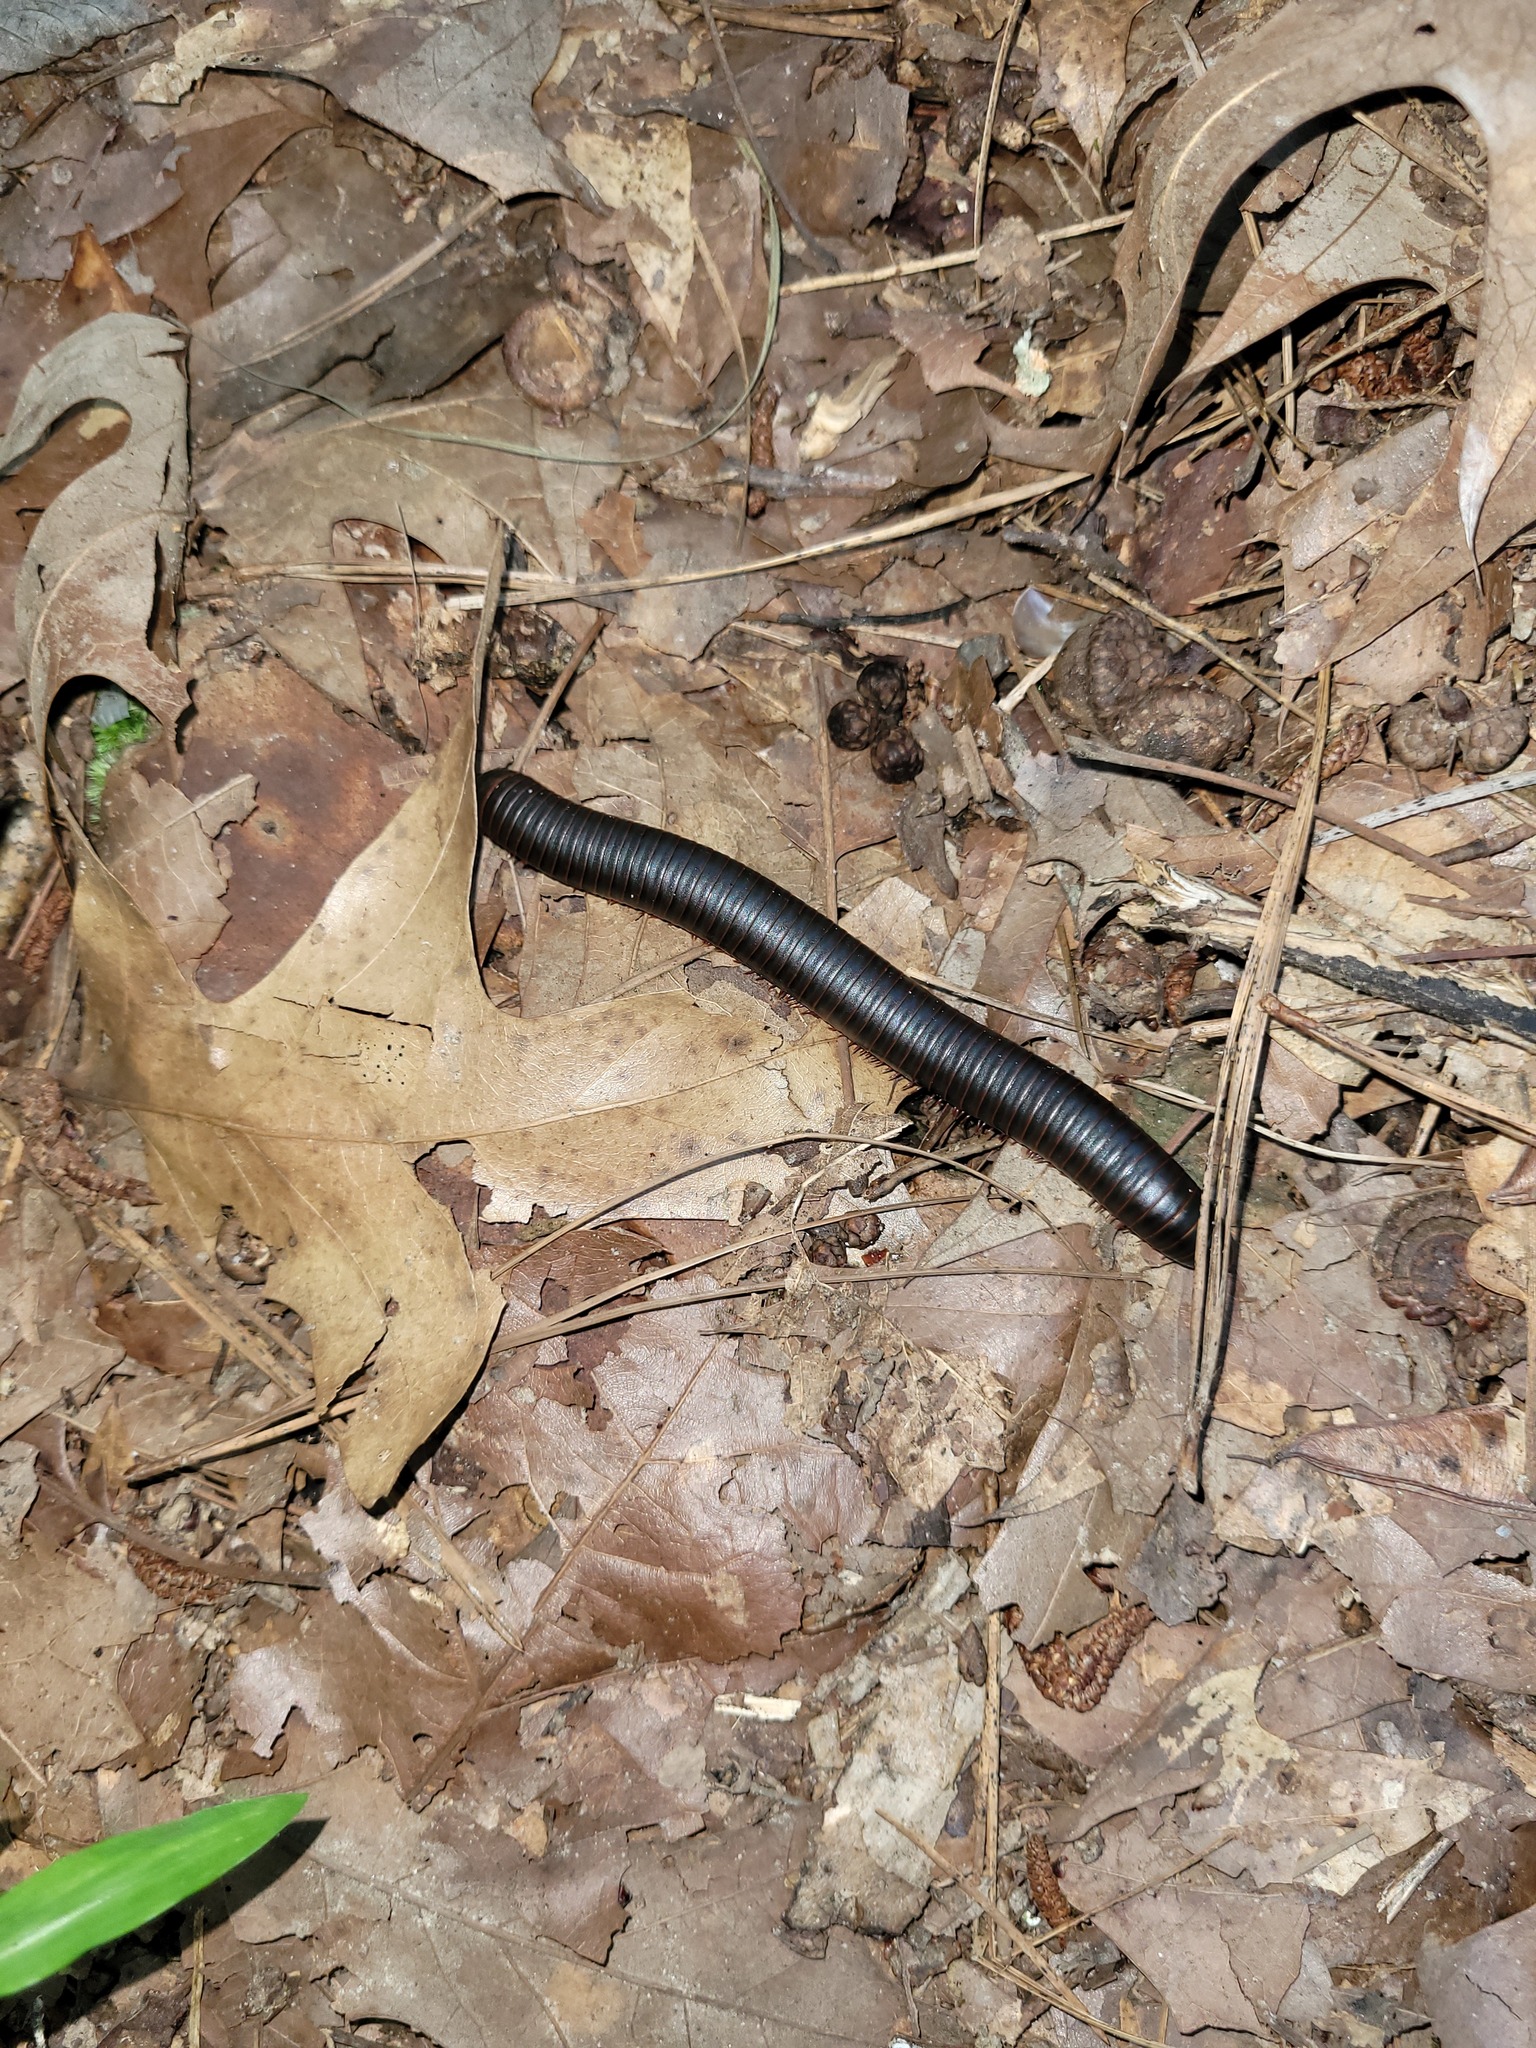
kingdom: Animalia
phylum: Arthropoda
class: Diplopoda
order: Spirobolida
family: Spirobolidae
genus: Narceus
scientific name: Narceus
